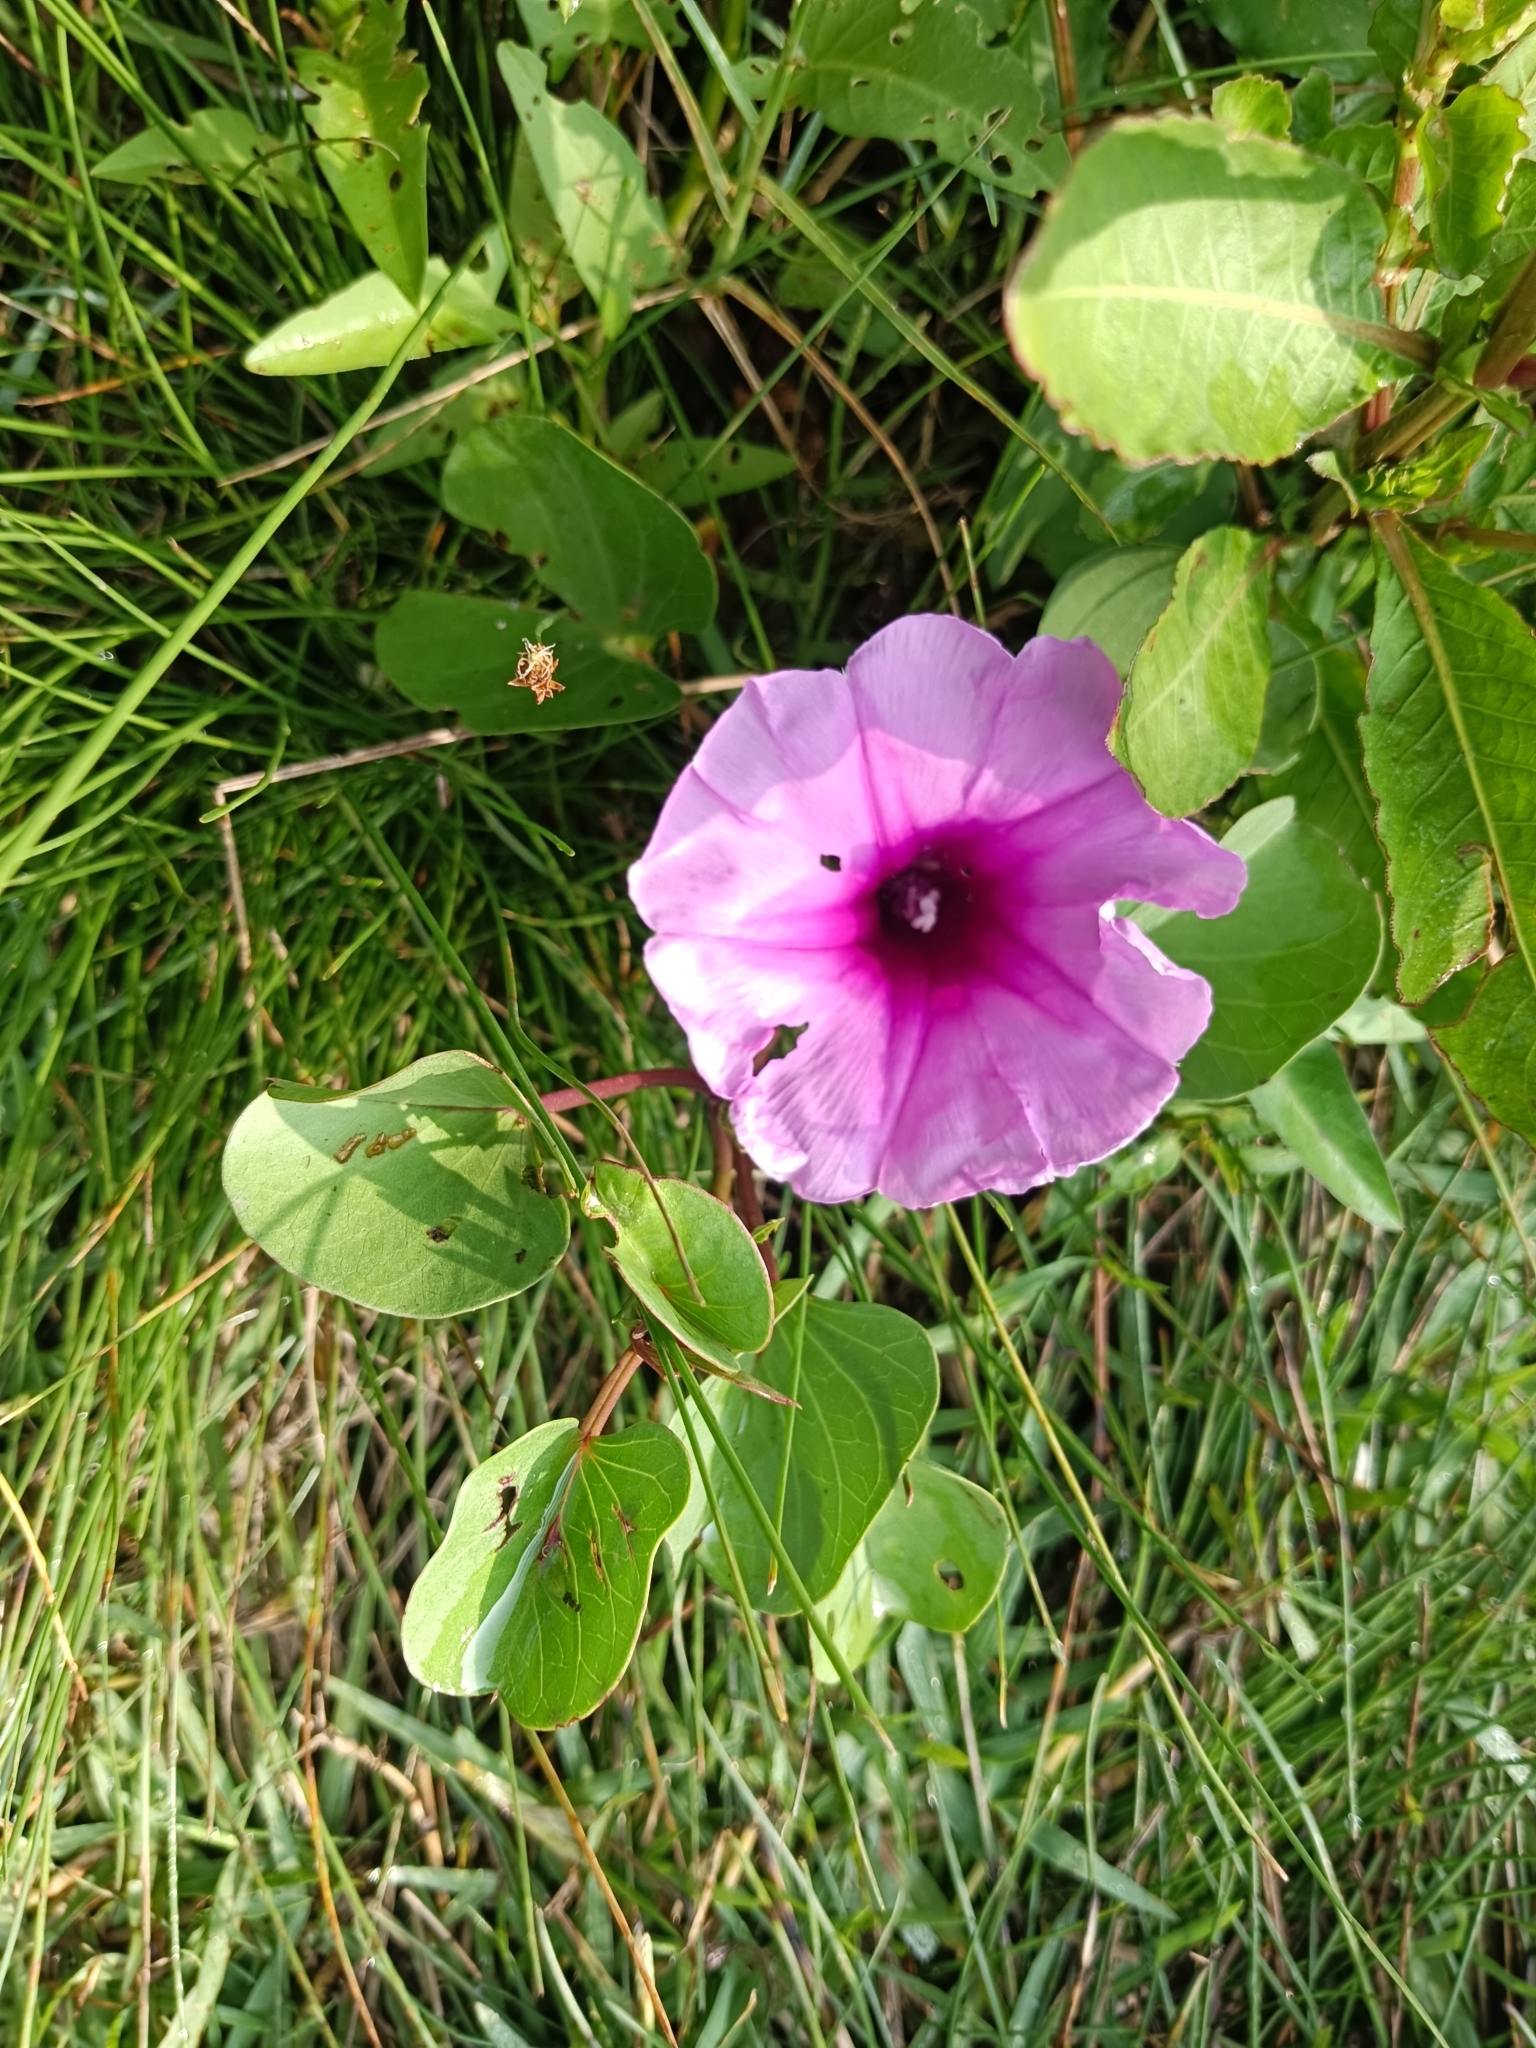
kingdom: Plantae
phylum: Tracheophyta
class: Magnoliopsida
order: Solanales
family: Convolvulaceae
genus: Ipomoea
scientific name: Ipomoea pes-caprae
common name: Beach morning glory
